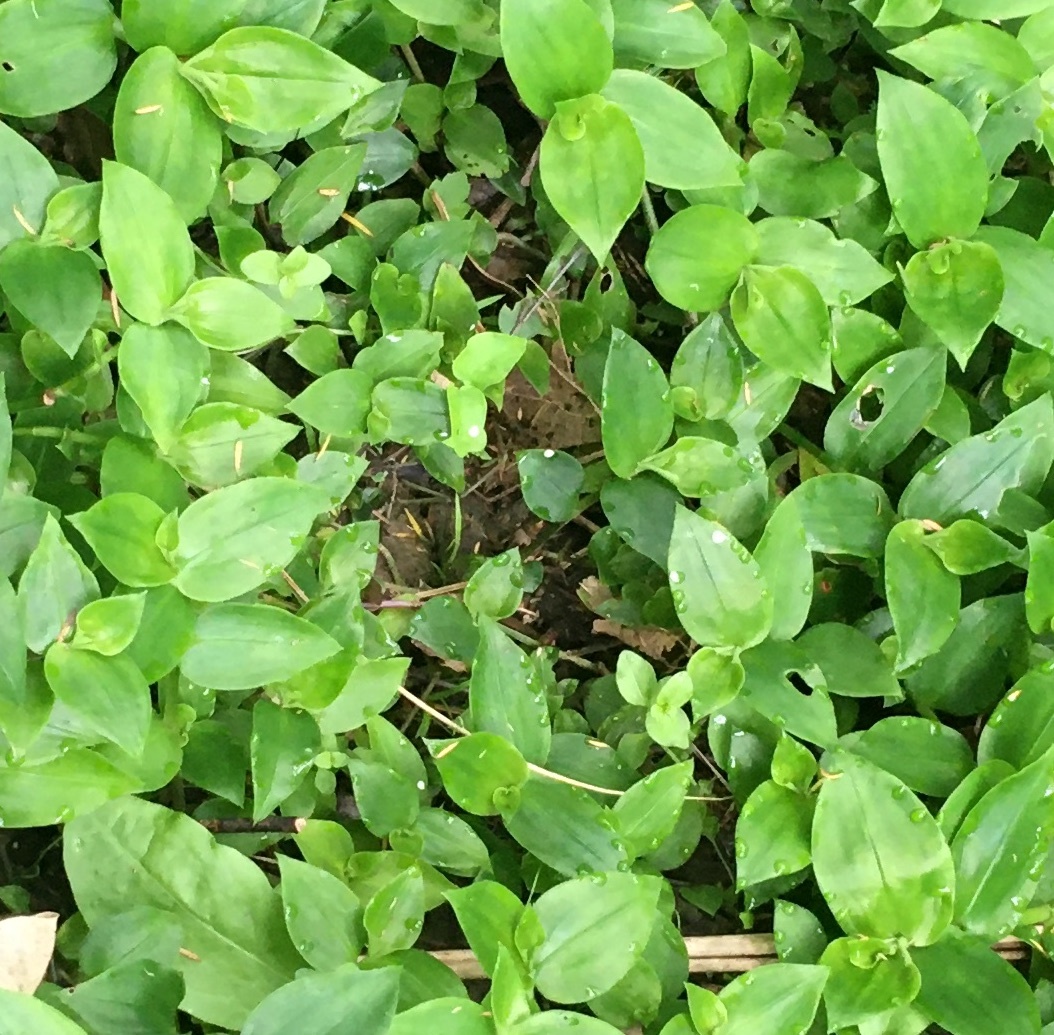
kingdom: Plantae
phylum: Tracheophyta
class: Magnoliopsida
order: Ericales
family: Primulaceae
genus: Lysimachia
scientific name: Lysimachia arvensis
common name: Scarlet pimpernel
